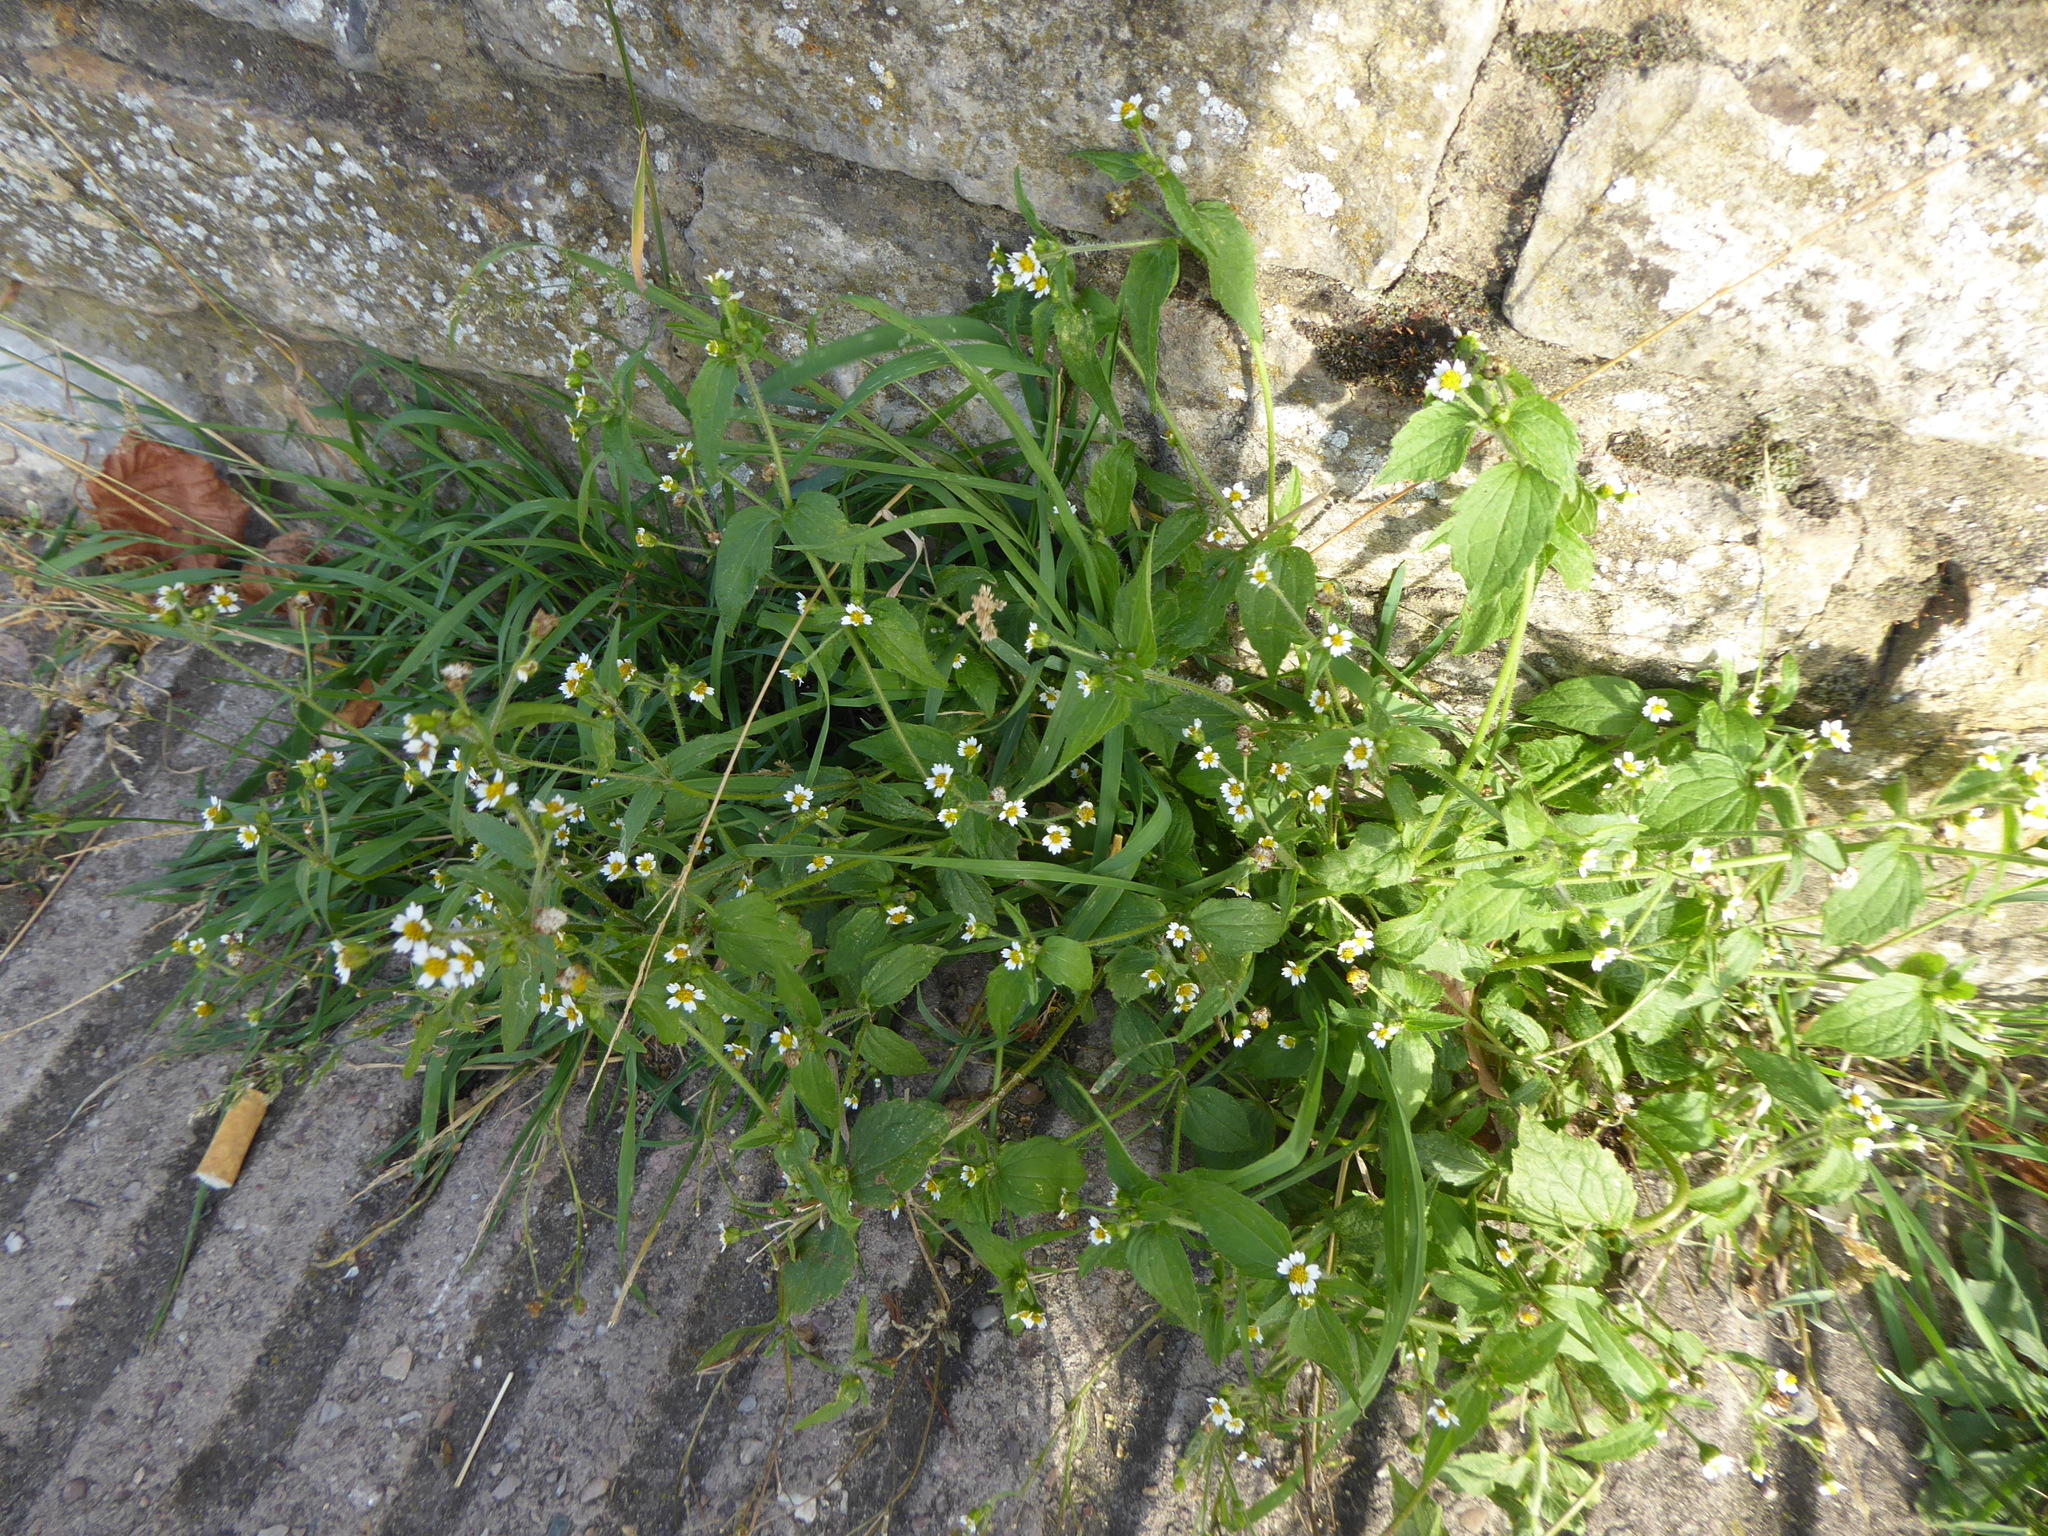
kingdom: Plantae
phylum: Tracheophyta
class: Magnoliopsida
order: Asterales
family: Asteraceae
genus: Galinsoga
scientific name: Galinsoga quadriradiata
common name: Shaggy soldier
